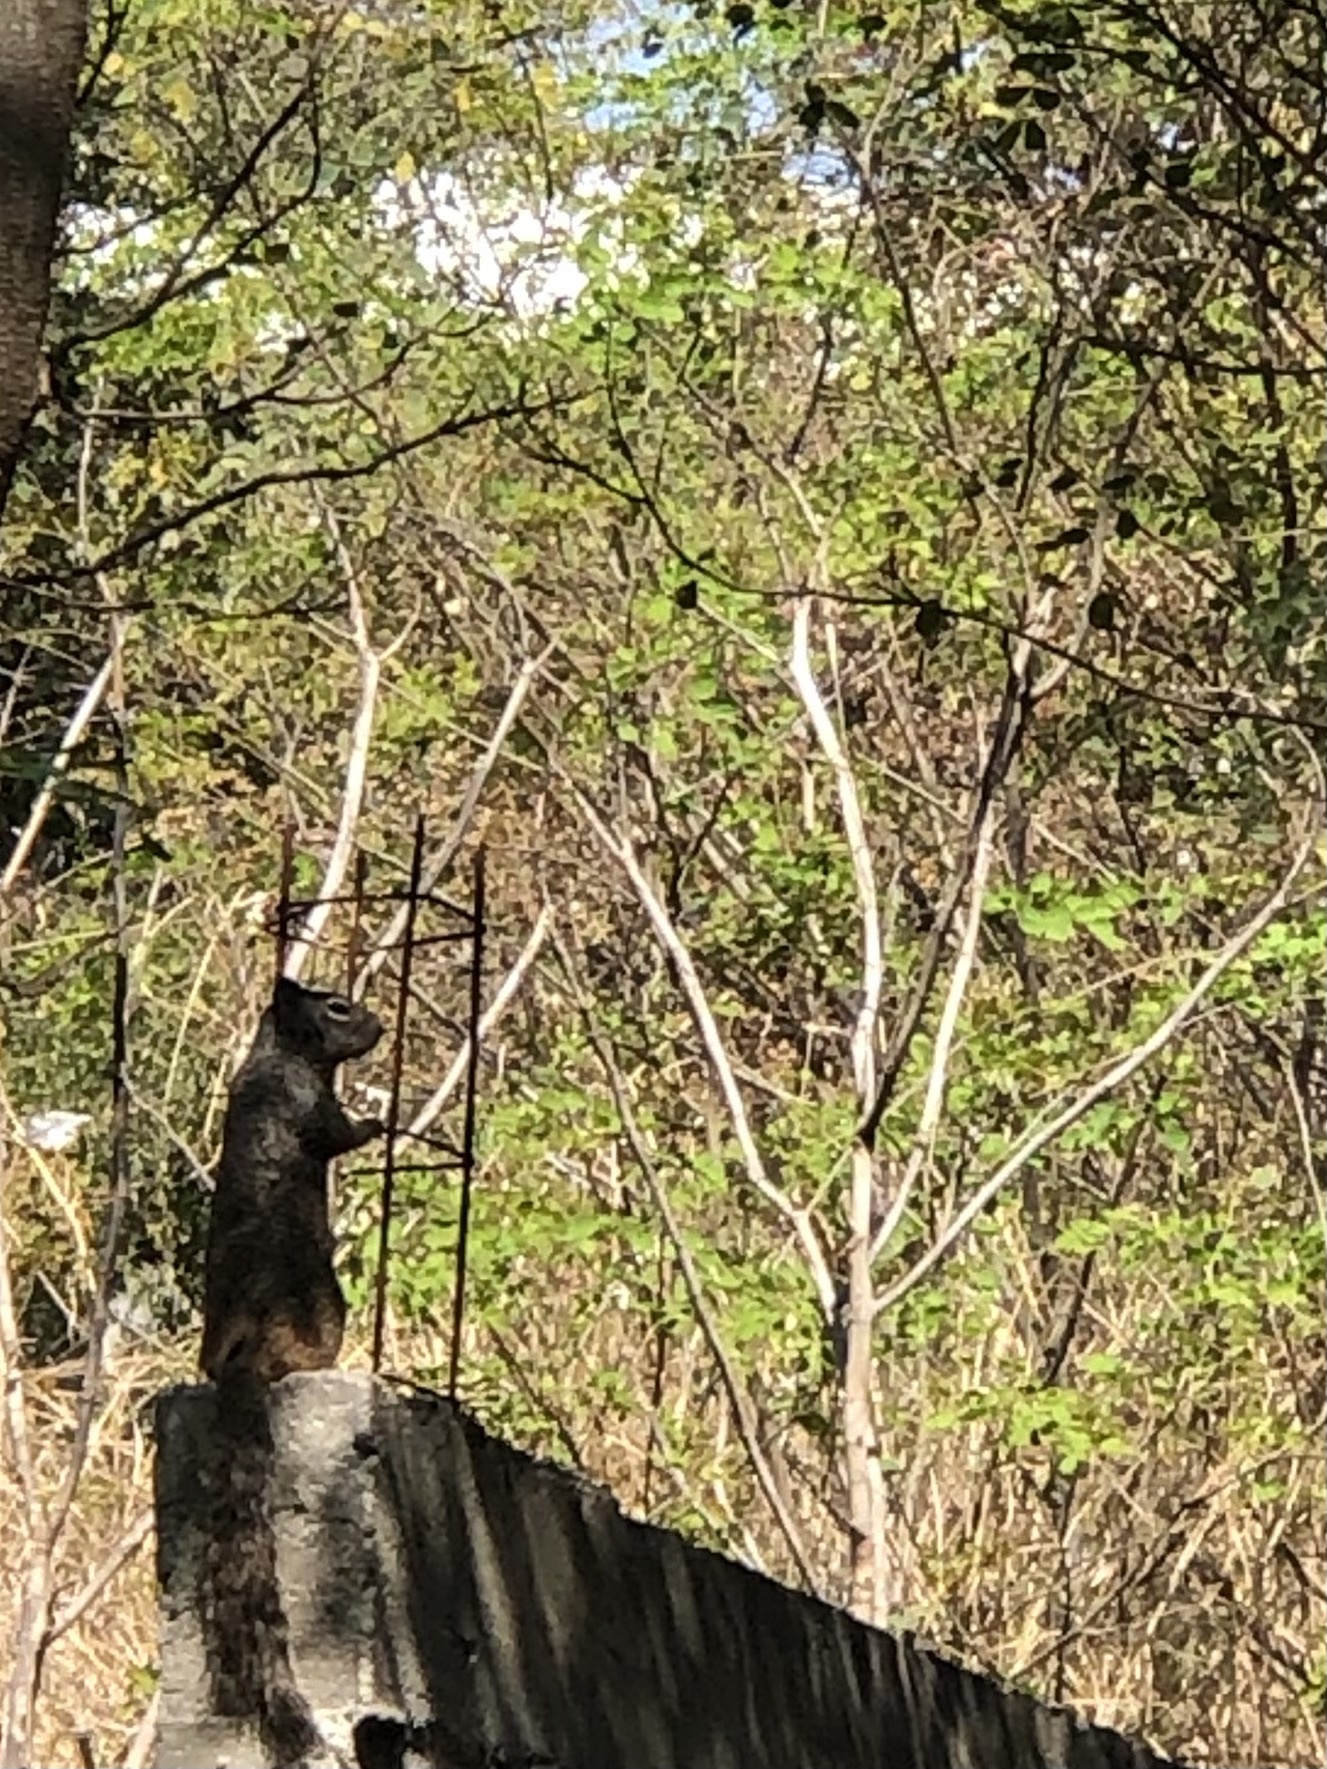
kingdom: Animalia
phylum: Chordata
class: Mammalia
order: Rodentia
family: Sciuridae
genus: Otospermophilus
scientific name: Otospermophilus variegatus
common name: Rock squirrel
